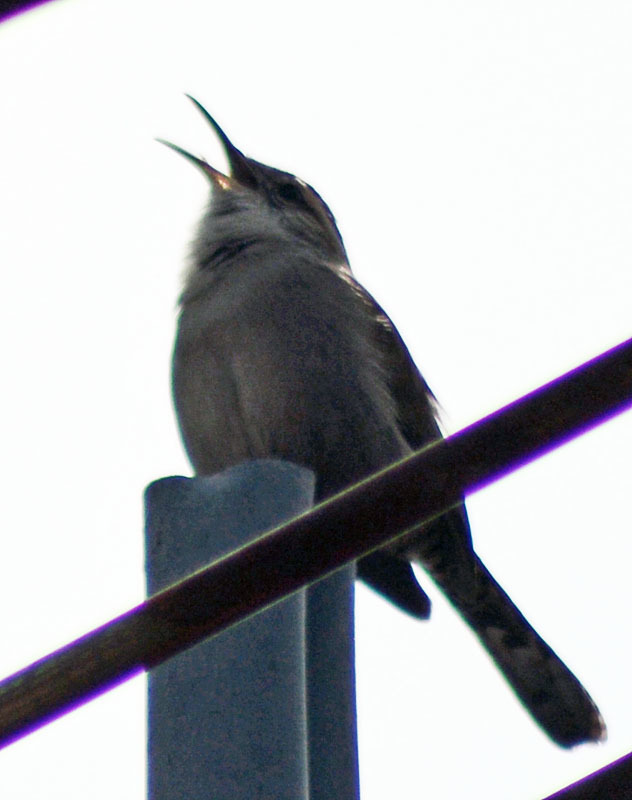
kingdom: Animalia
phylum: Chordata
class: Aves
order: Passeriformes
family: Troglodytidae
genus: Thryomanes
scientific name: Thryomanes bewickii
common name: Bewick's wren
